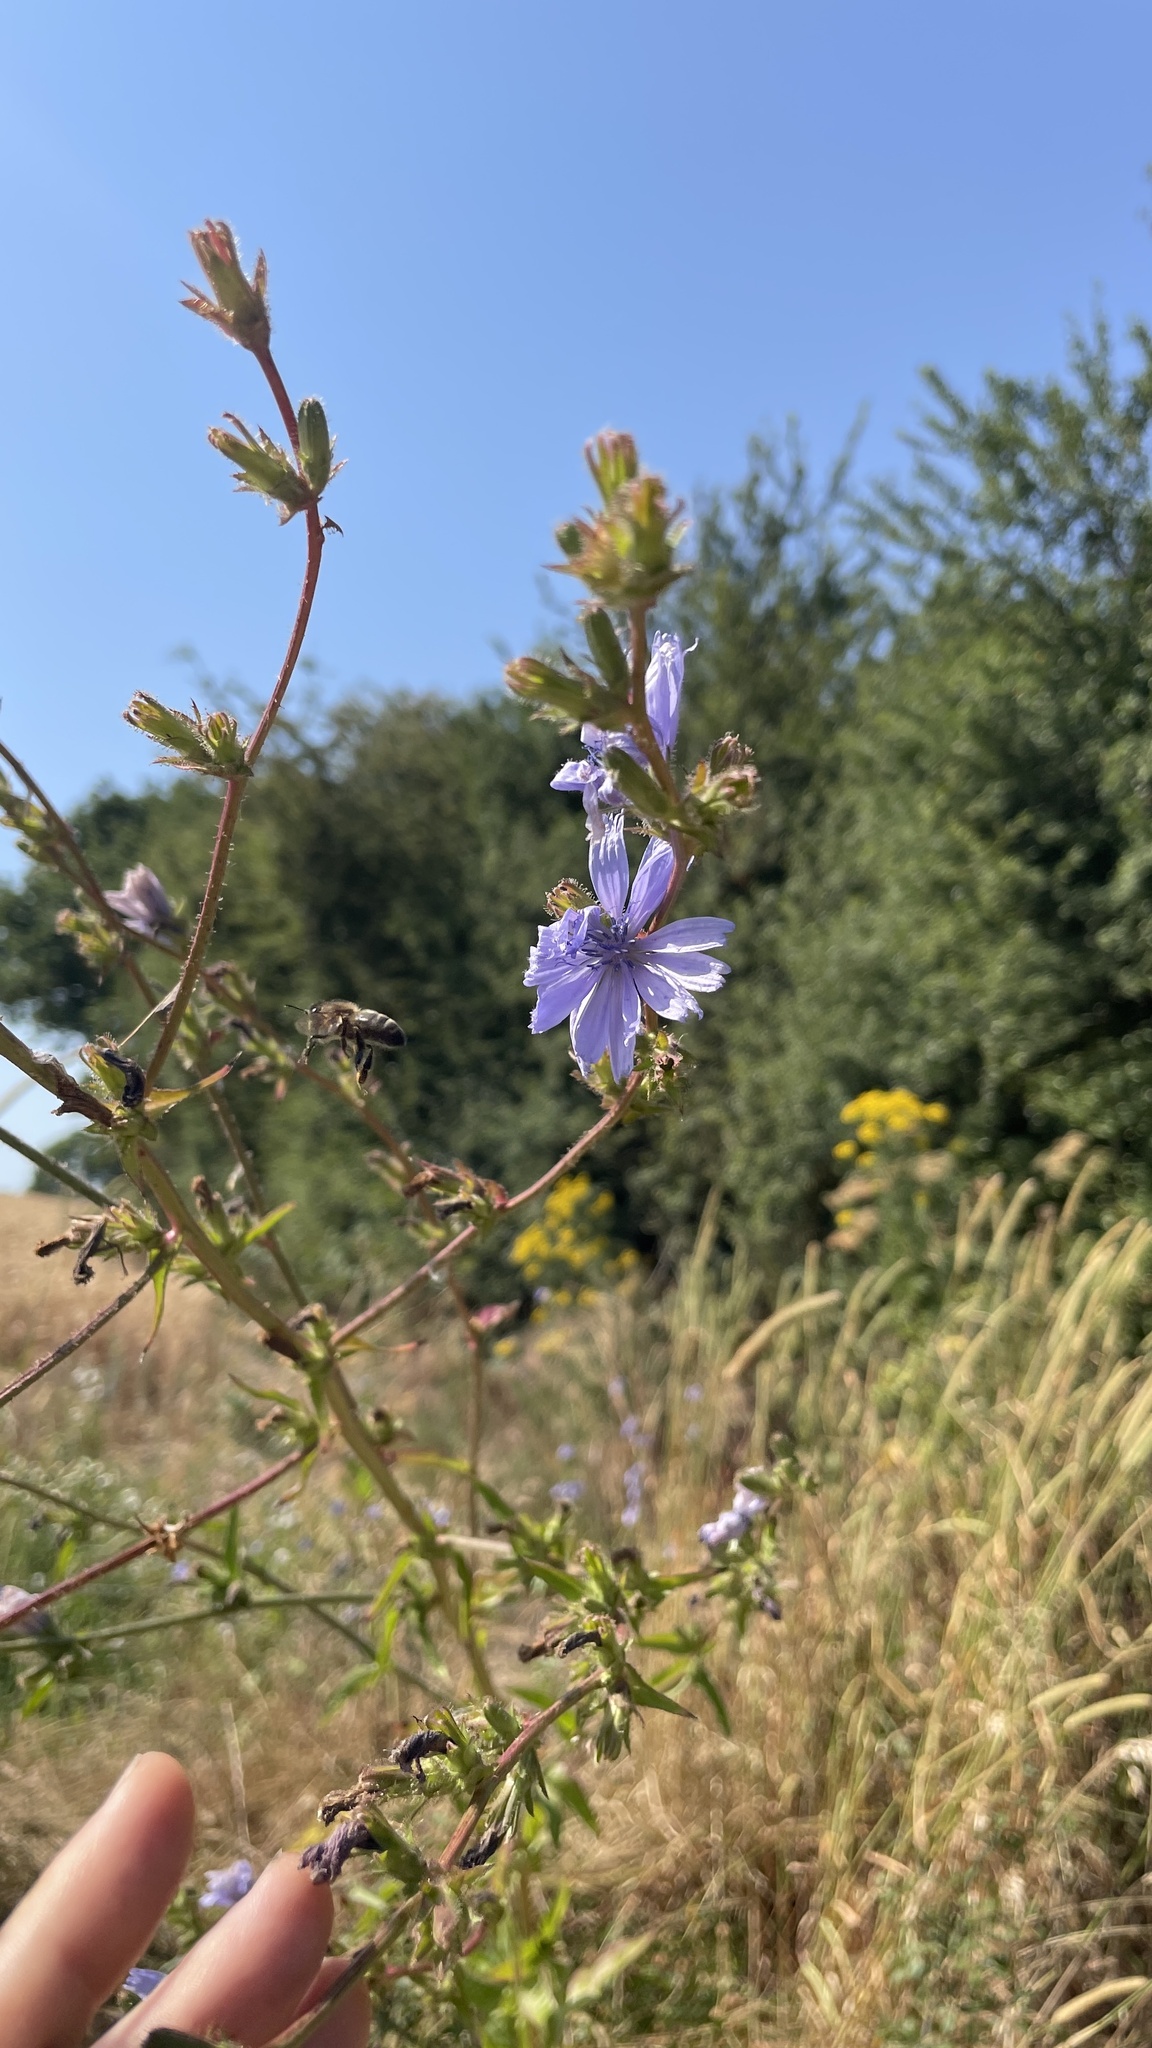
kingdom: Plantae
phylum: Tracheophyta
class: Magnoliopsida
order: Asterales
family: Asteraceae
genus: Cichorium
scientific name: Cichorium intybus
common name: Chicory
